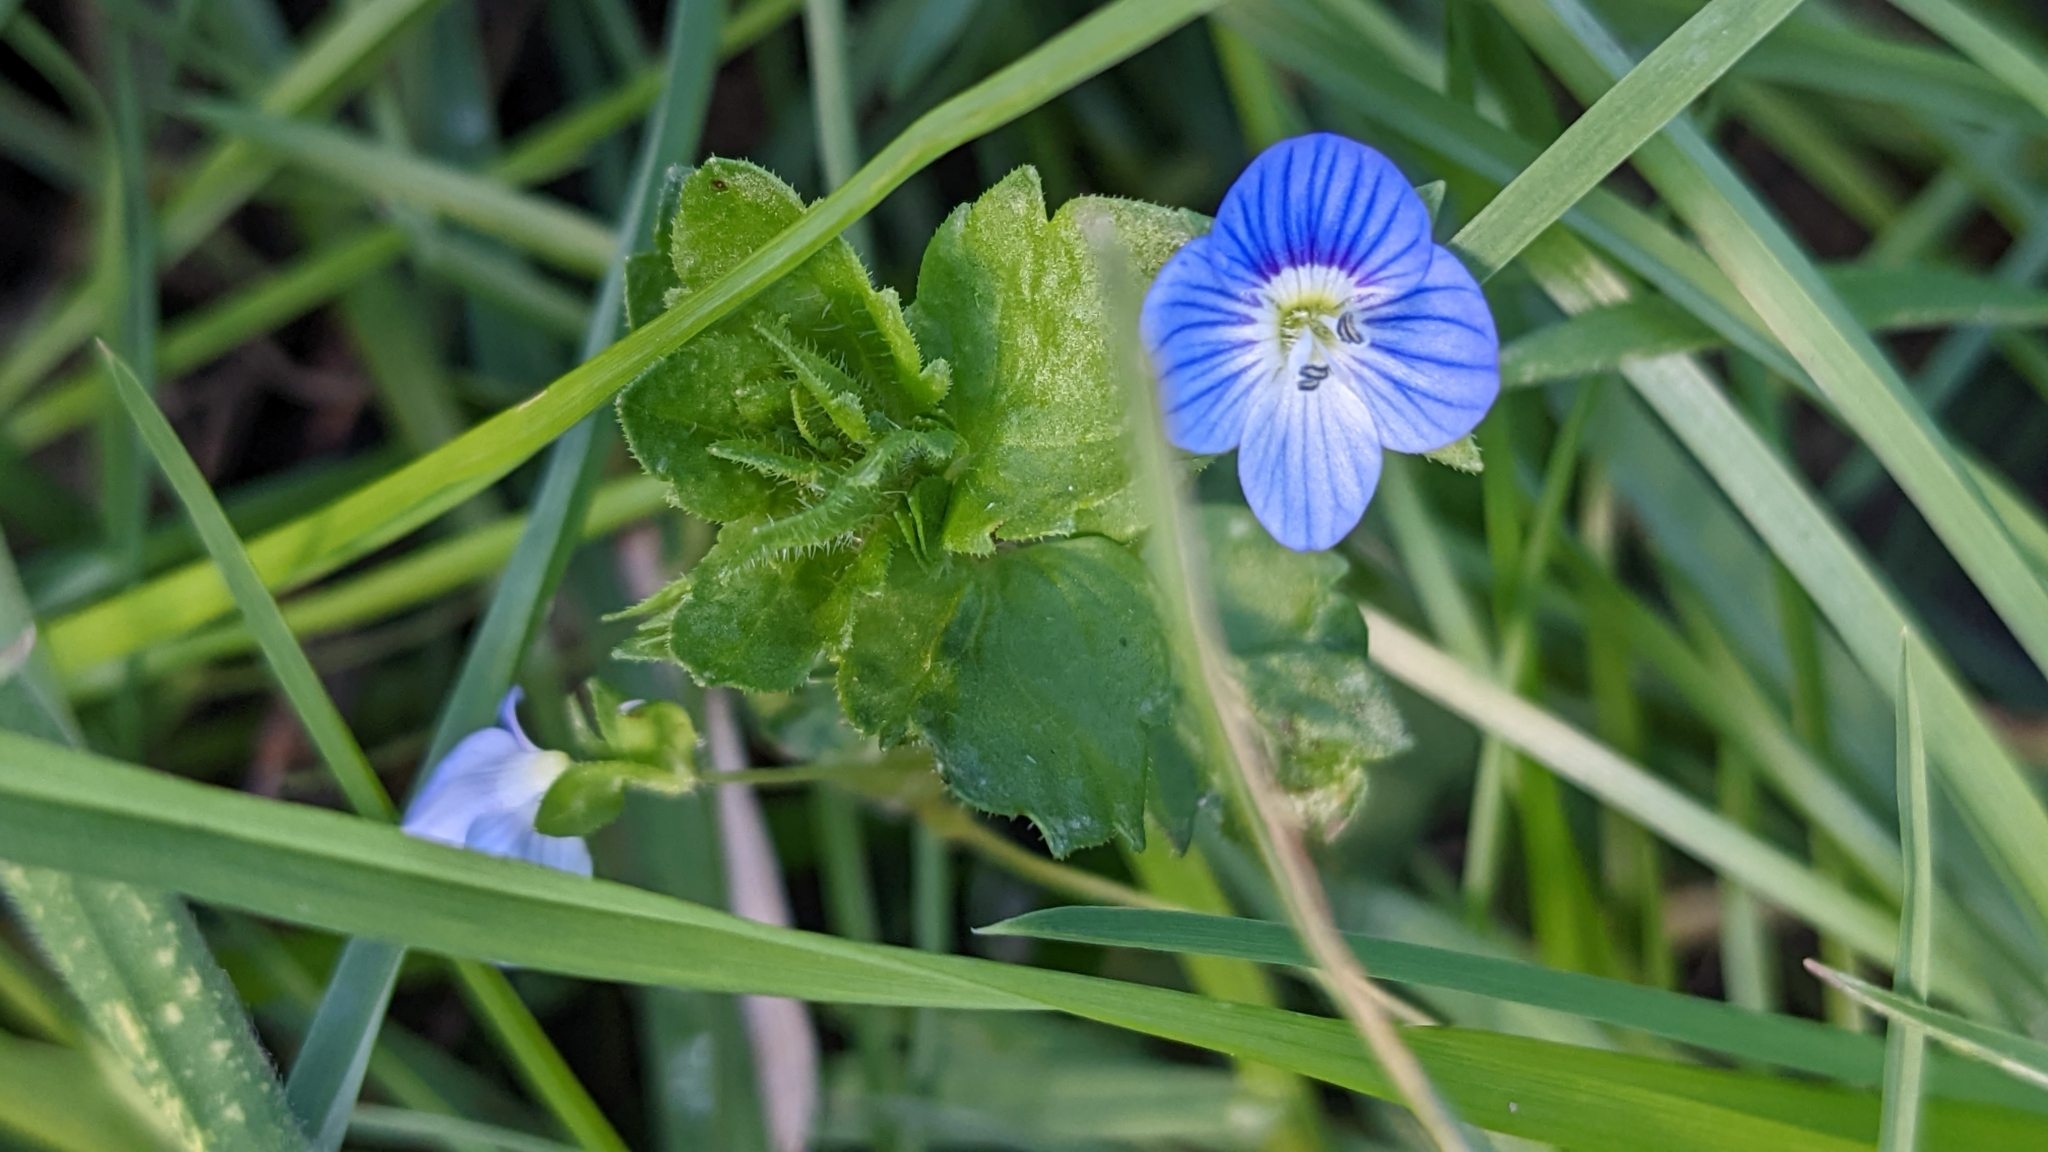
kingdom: Plantae
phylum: Tracheophyta
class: Magnoliopsida
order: Lamiales
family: Plantaginaceae
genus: Veronica
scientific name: Veronica persica
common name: Common field-speedwell
